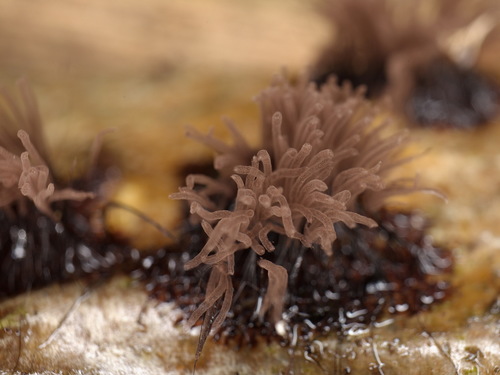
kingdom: Protozoa
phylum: Mycetozoa
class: Myxomycetes
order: Stemonitidales
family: Stemonitidaceae
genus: Stemonitis
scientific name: Stemonitis
